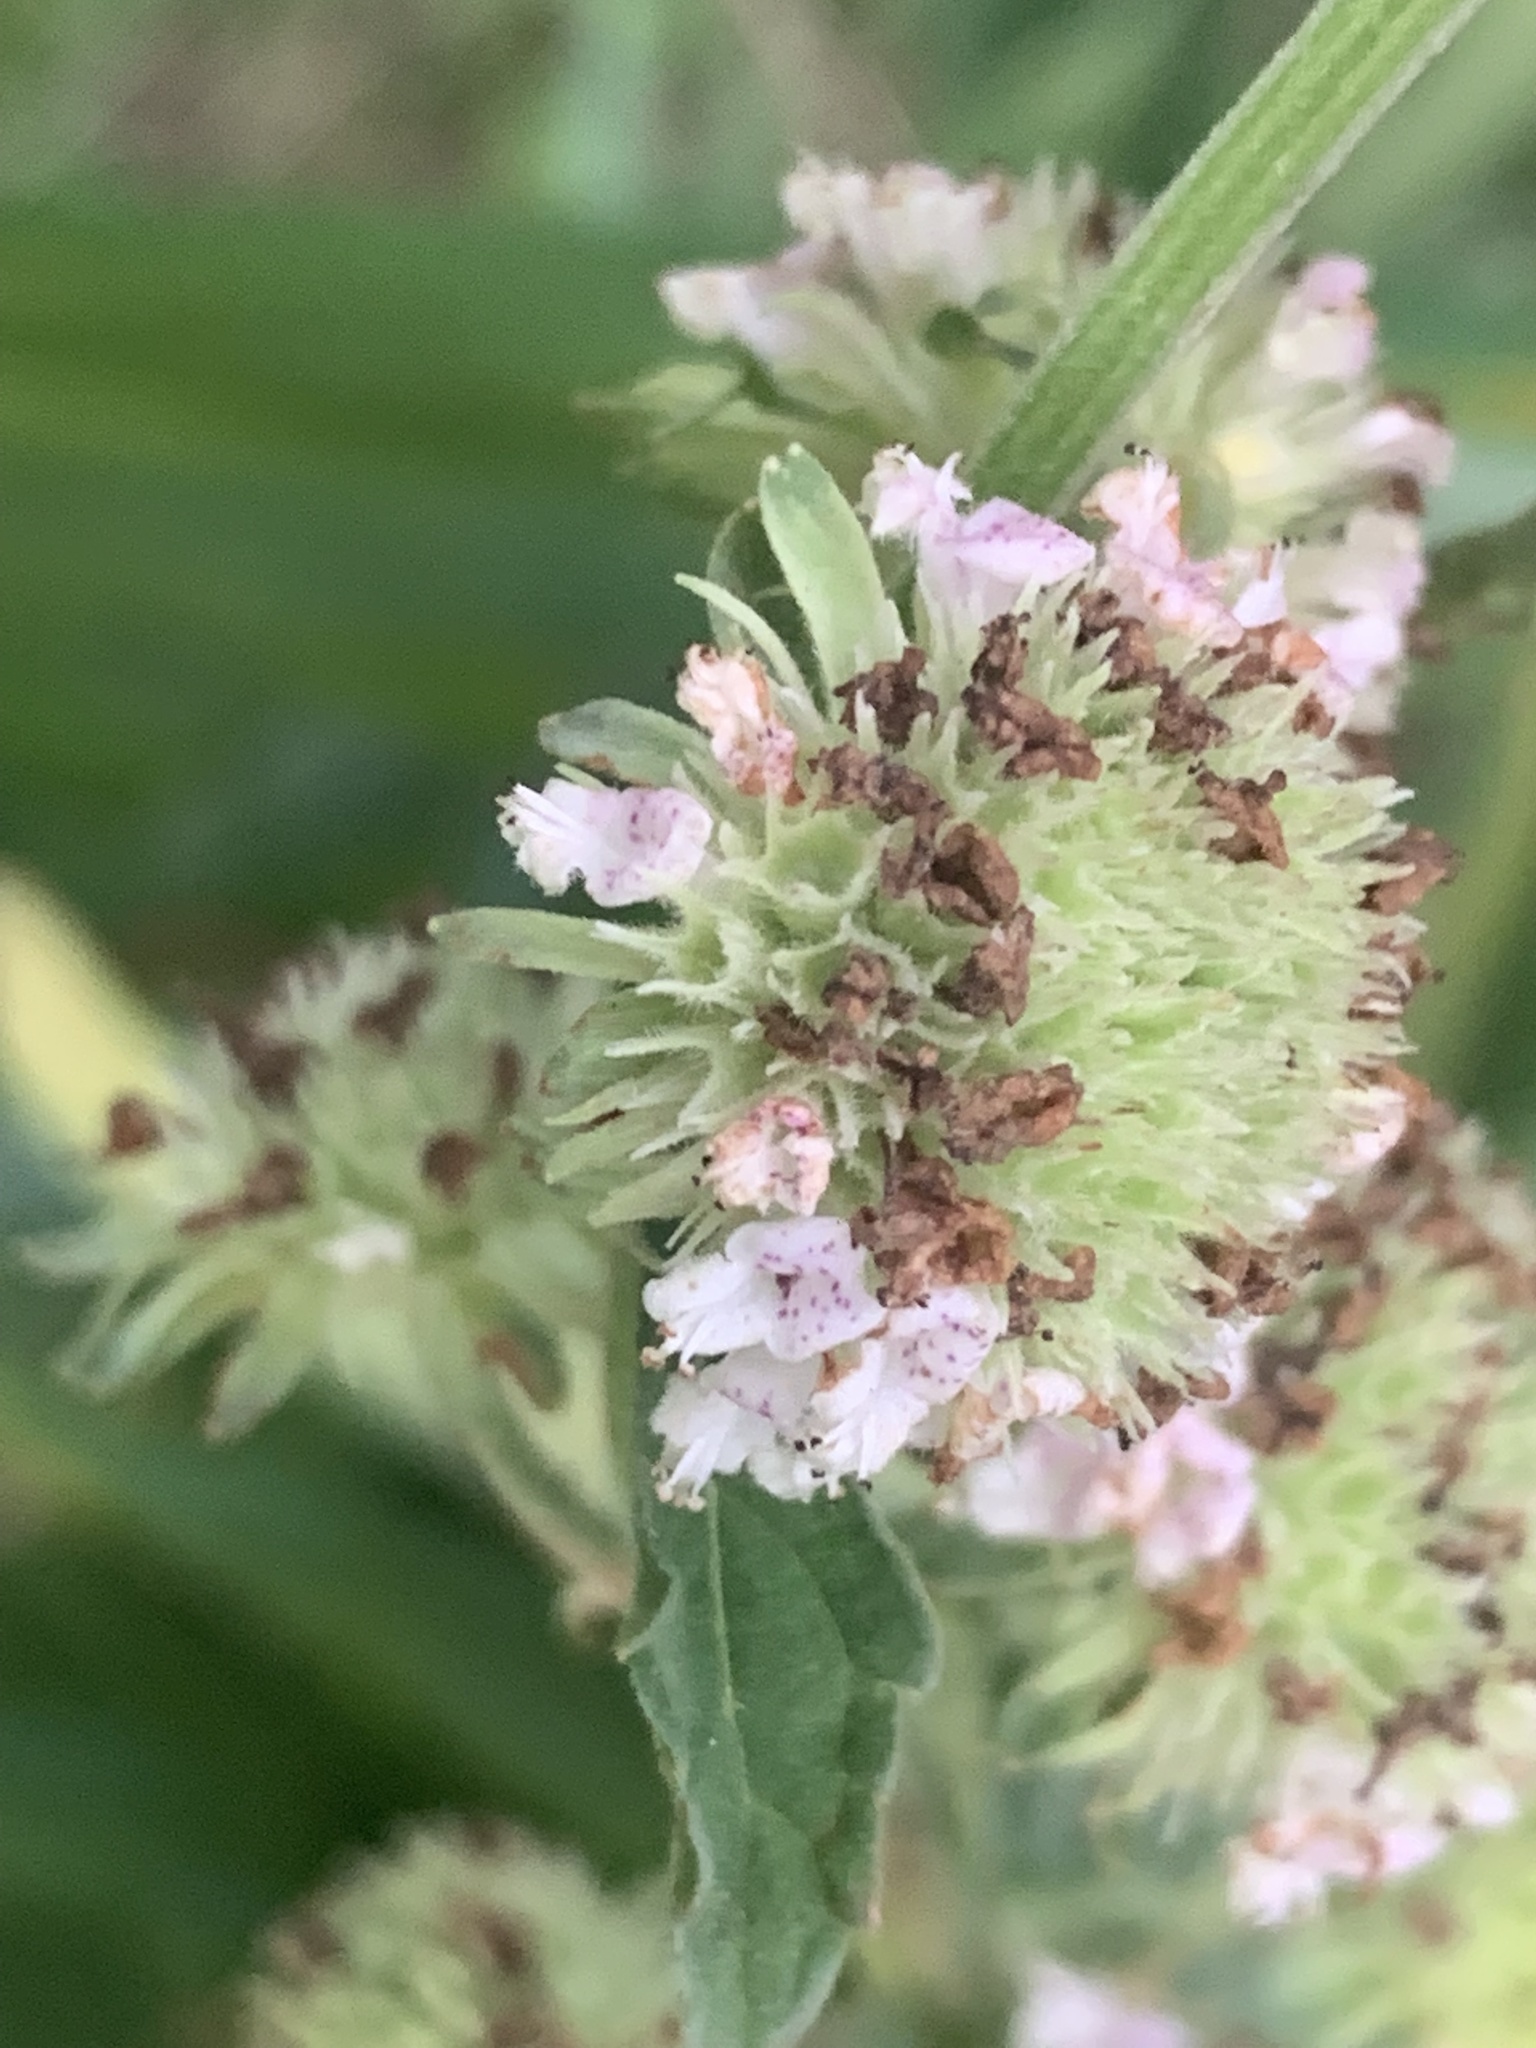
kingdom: Plantae
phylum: Tracheophyta
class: Magnoliopsida
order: Lamiales
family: Lamiaceae
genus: Hyptis
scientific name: Hyptis alata
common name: Cluster bush-mint
